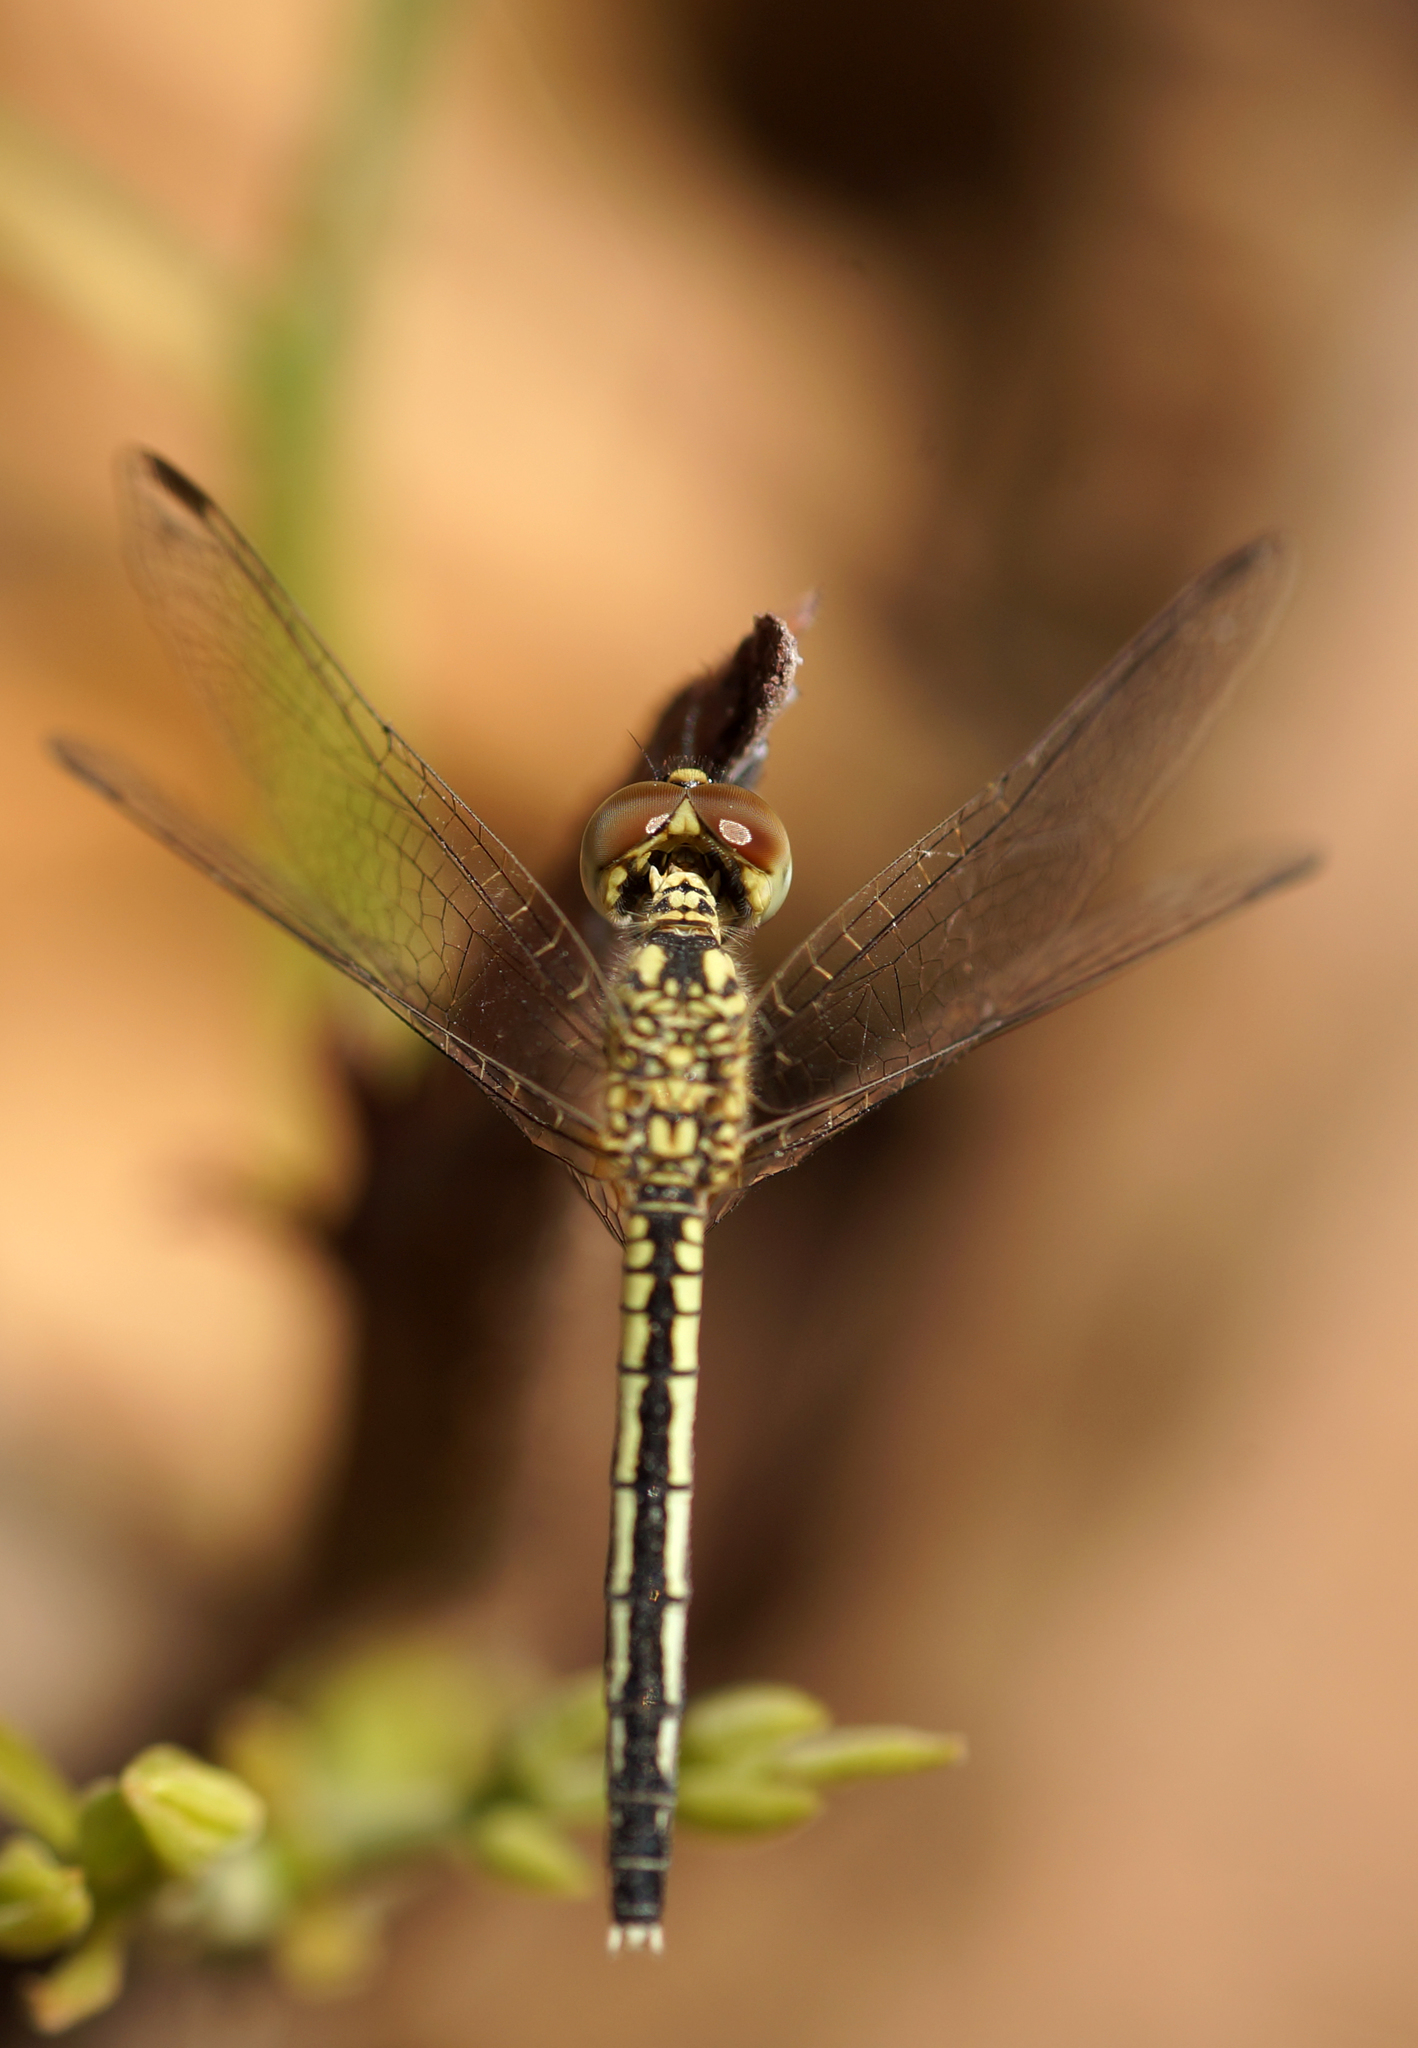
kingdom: Animalia
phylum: Arthropoda
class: Insecta
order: Odonata
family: Libellulidae
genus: Diplacodes
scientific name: Diplacodes nebulosa
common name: Black-tipped percher
